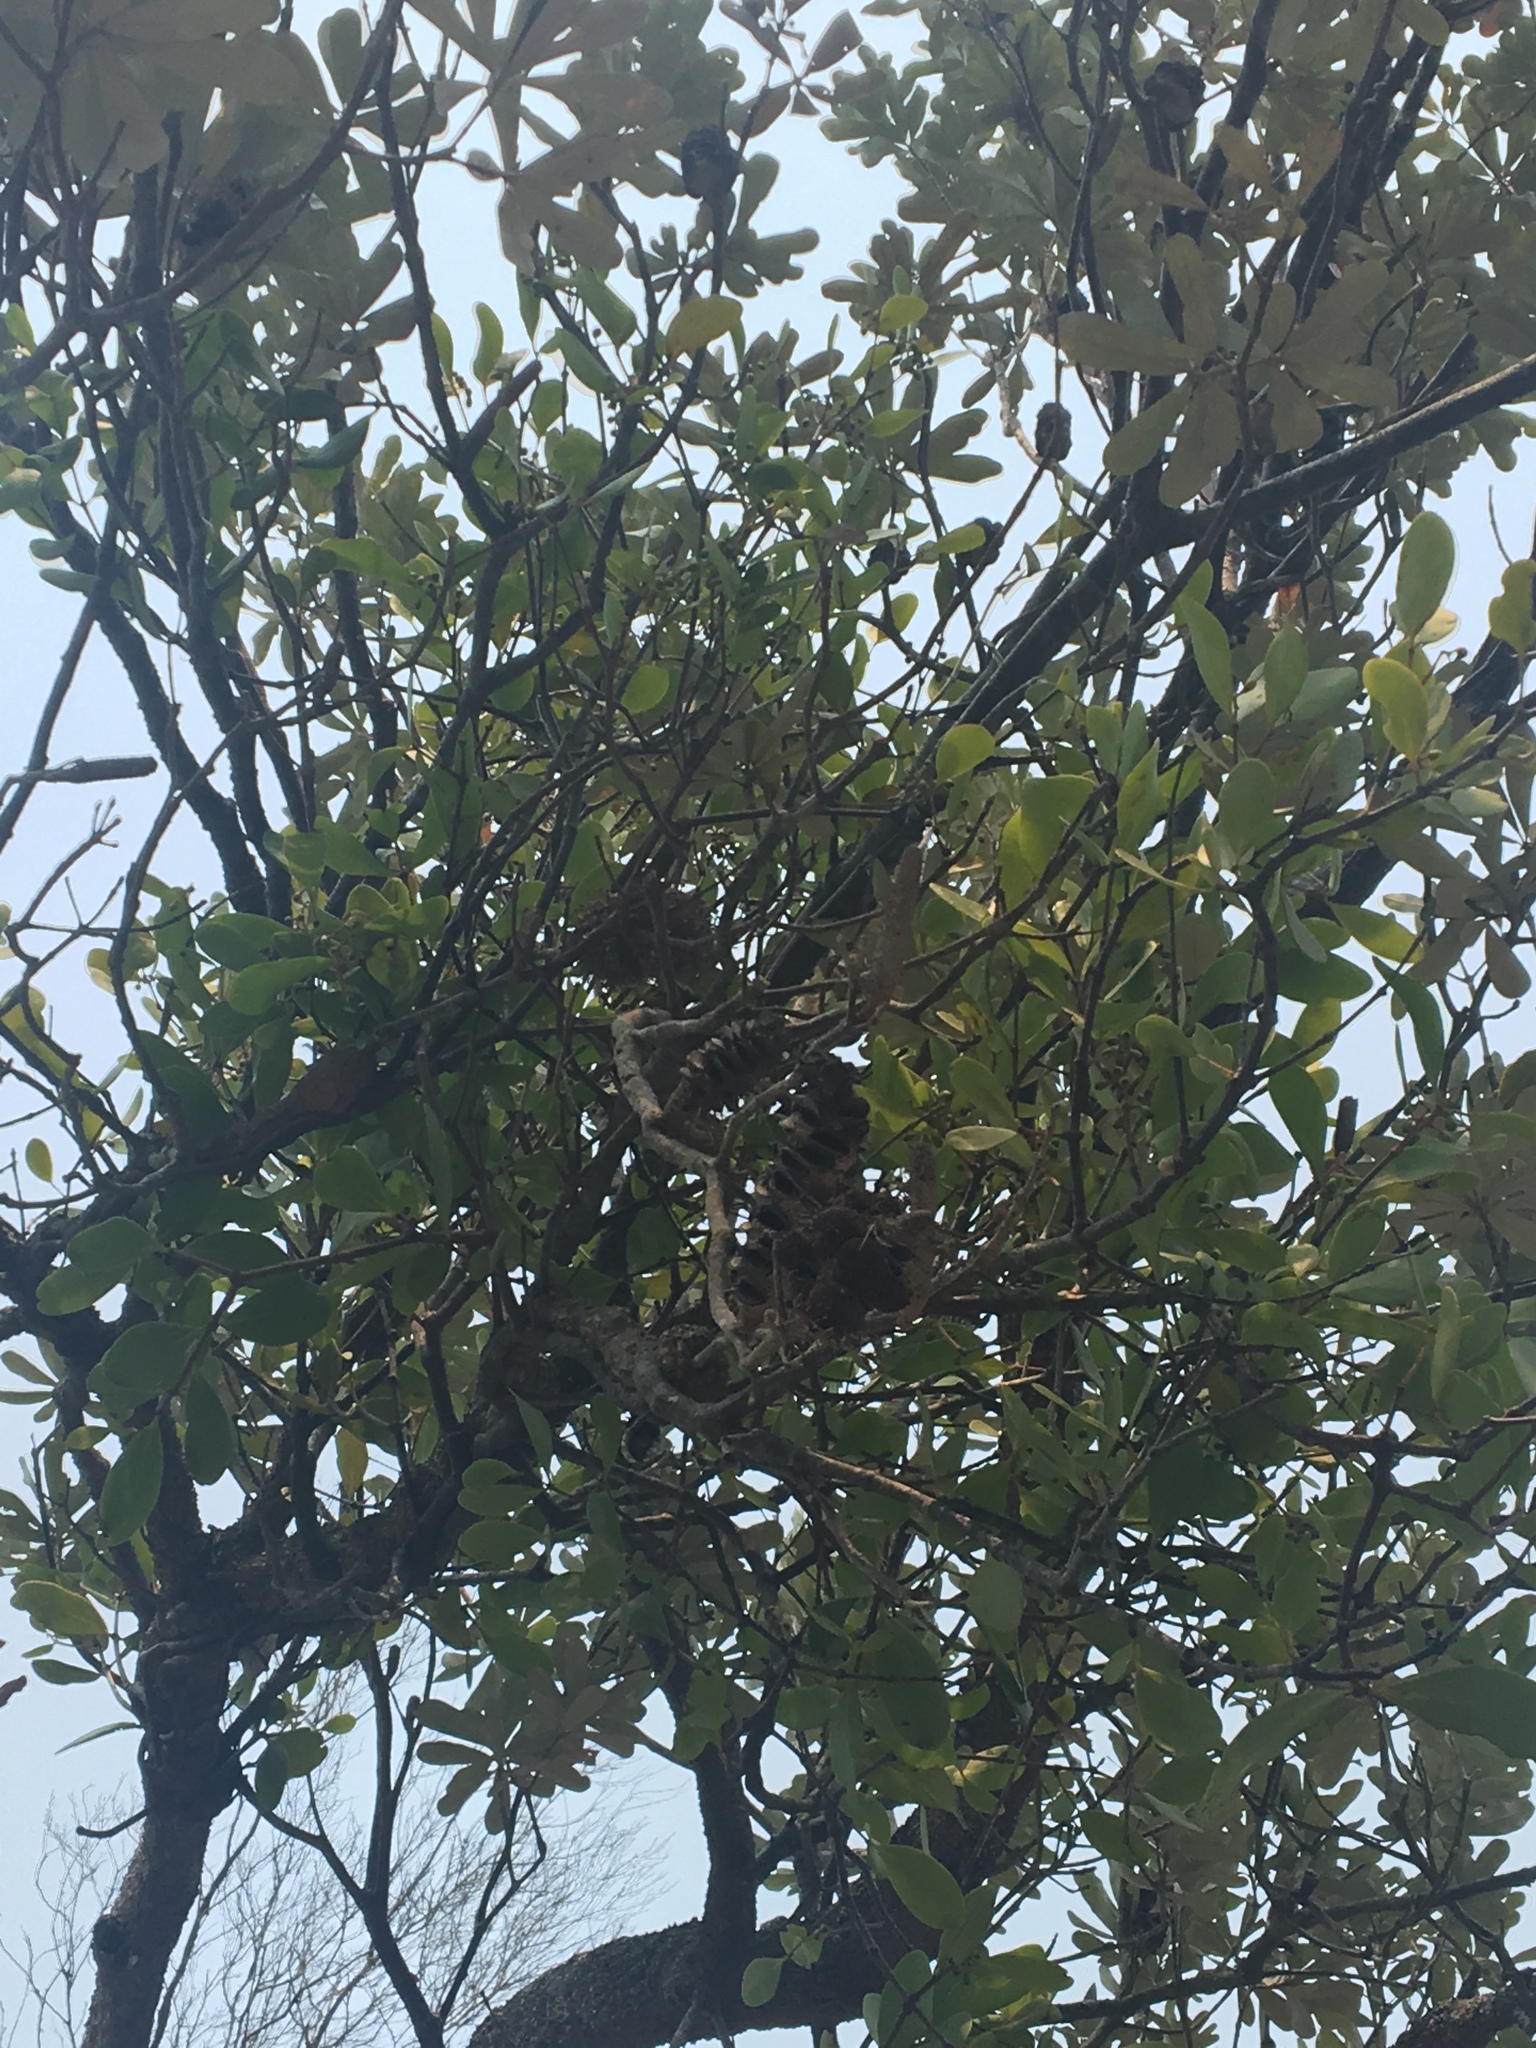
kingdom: Plantae
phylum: Tracheophyta
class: Magnoliopsida
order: Santalales
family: Loranthaceae
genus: Muellerina
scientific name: Muellerina celastroides
